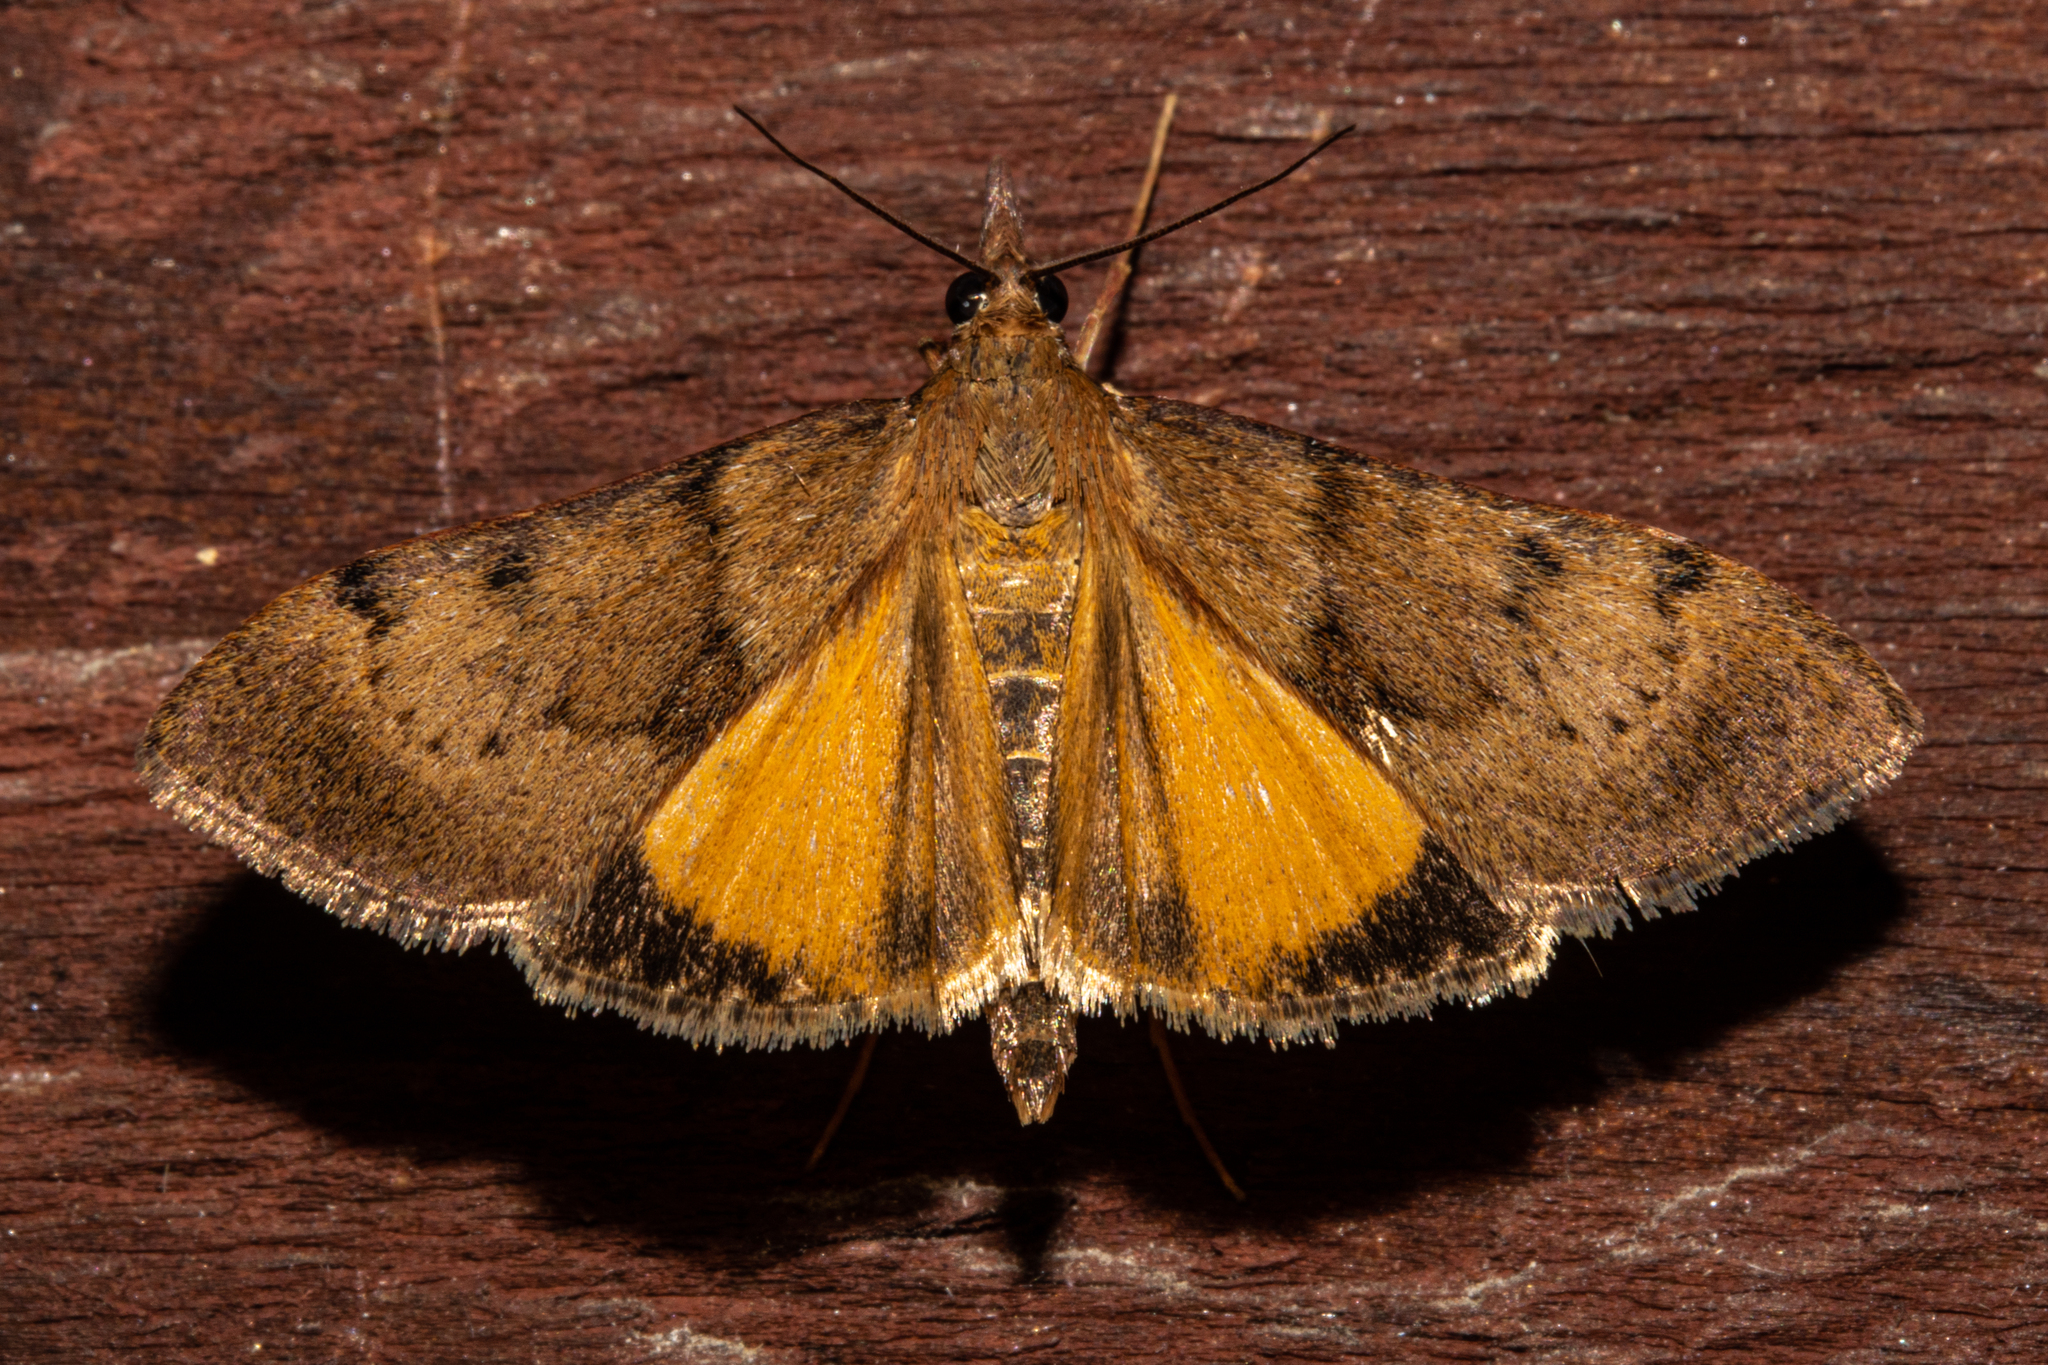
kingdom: Animalia
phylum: Arthropoda
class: Insecta
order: Lepidoptera
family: Crambidae
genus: Uresiphita
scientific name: Uresiphita
